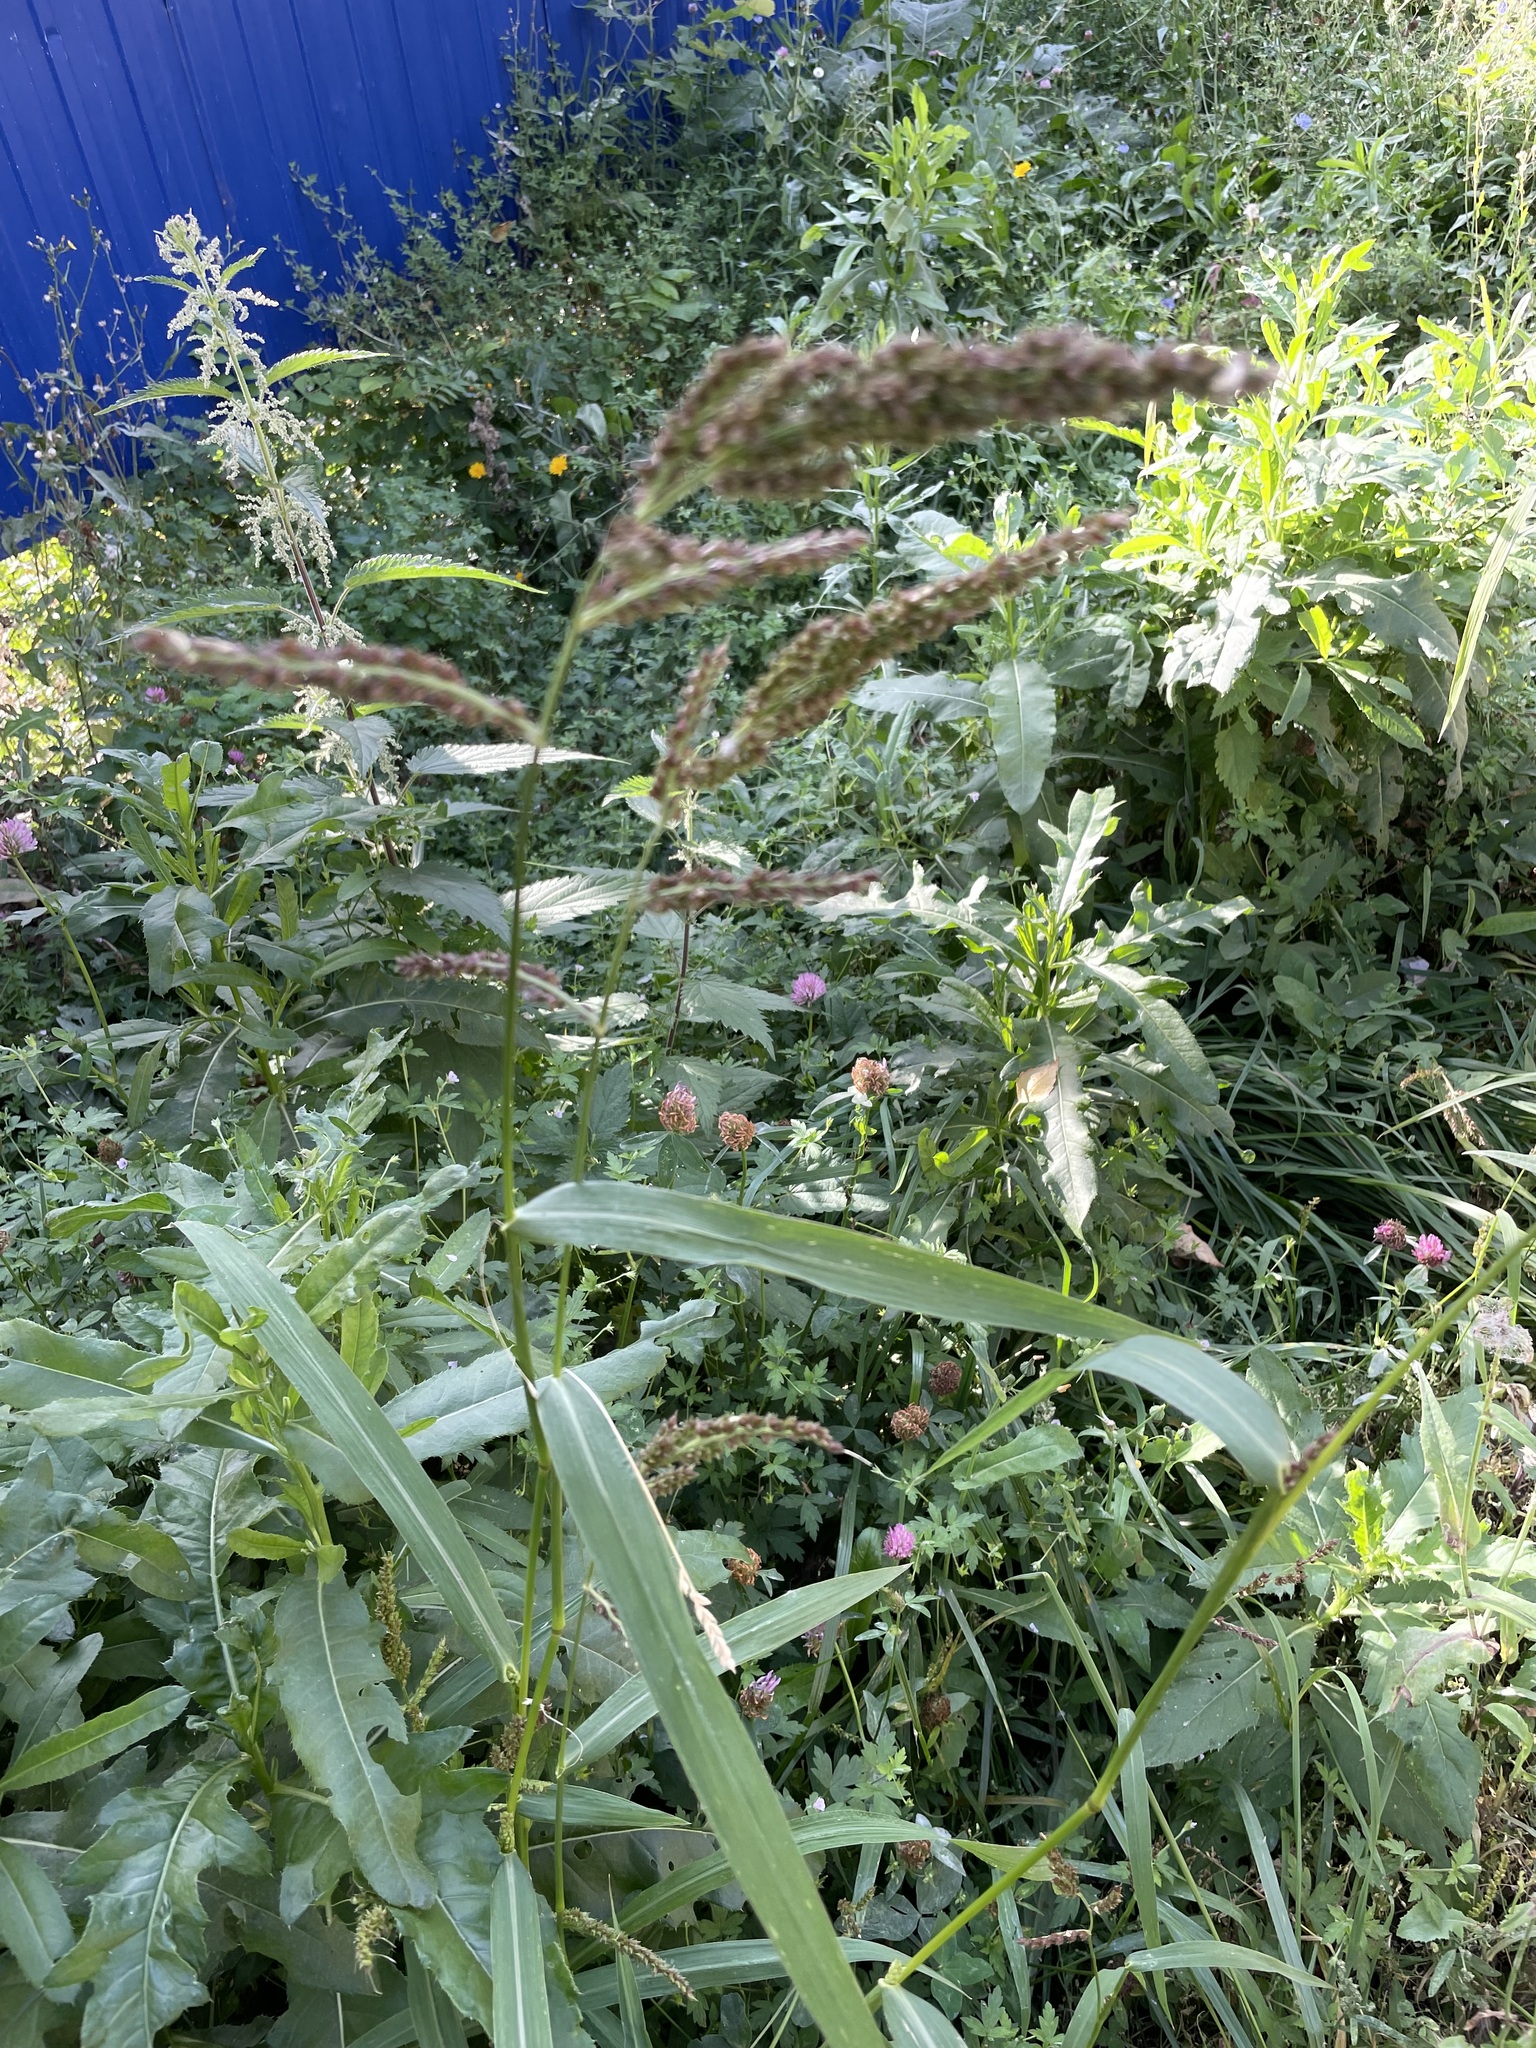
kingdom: Plantae
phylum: Tracheophyta
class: Liliopsida
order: Poales
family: Poaceae
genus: Echinochloa
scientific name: Echinochloa crus-galli
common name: Cockspur
